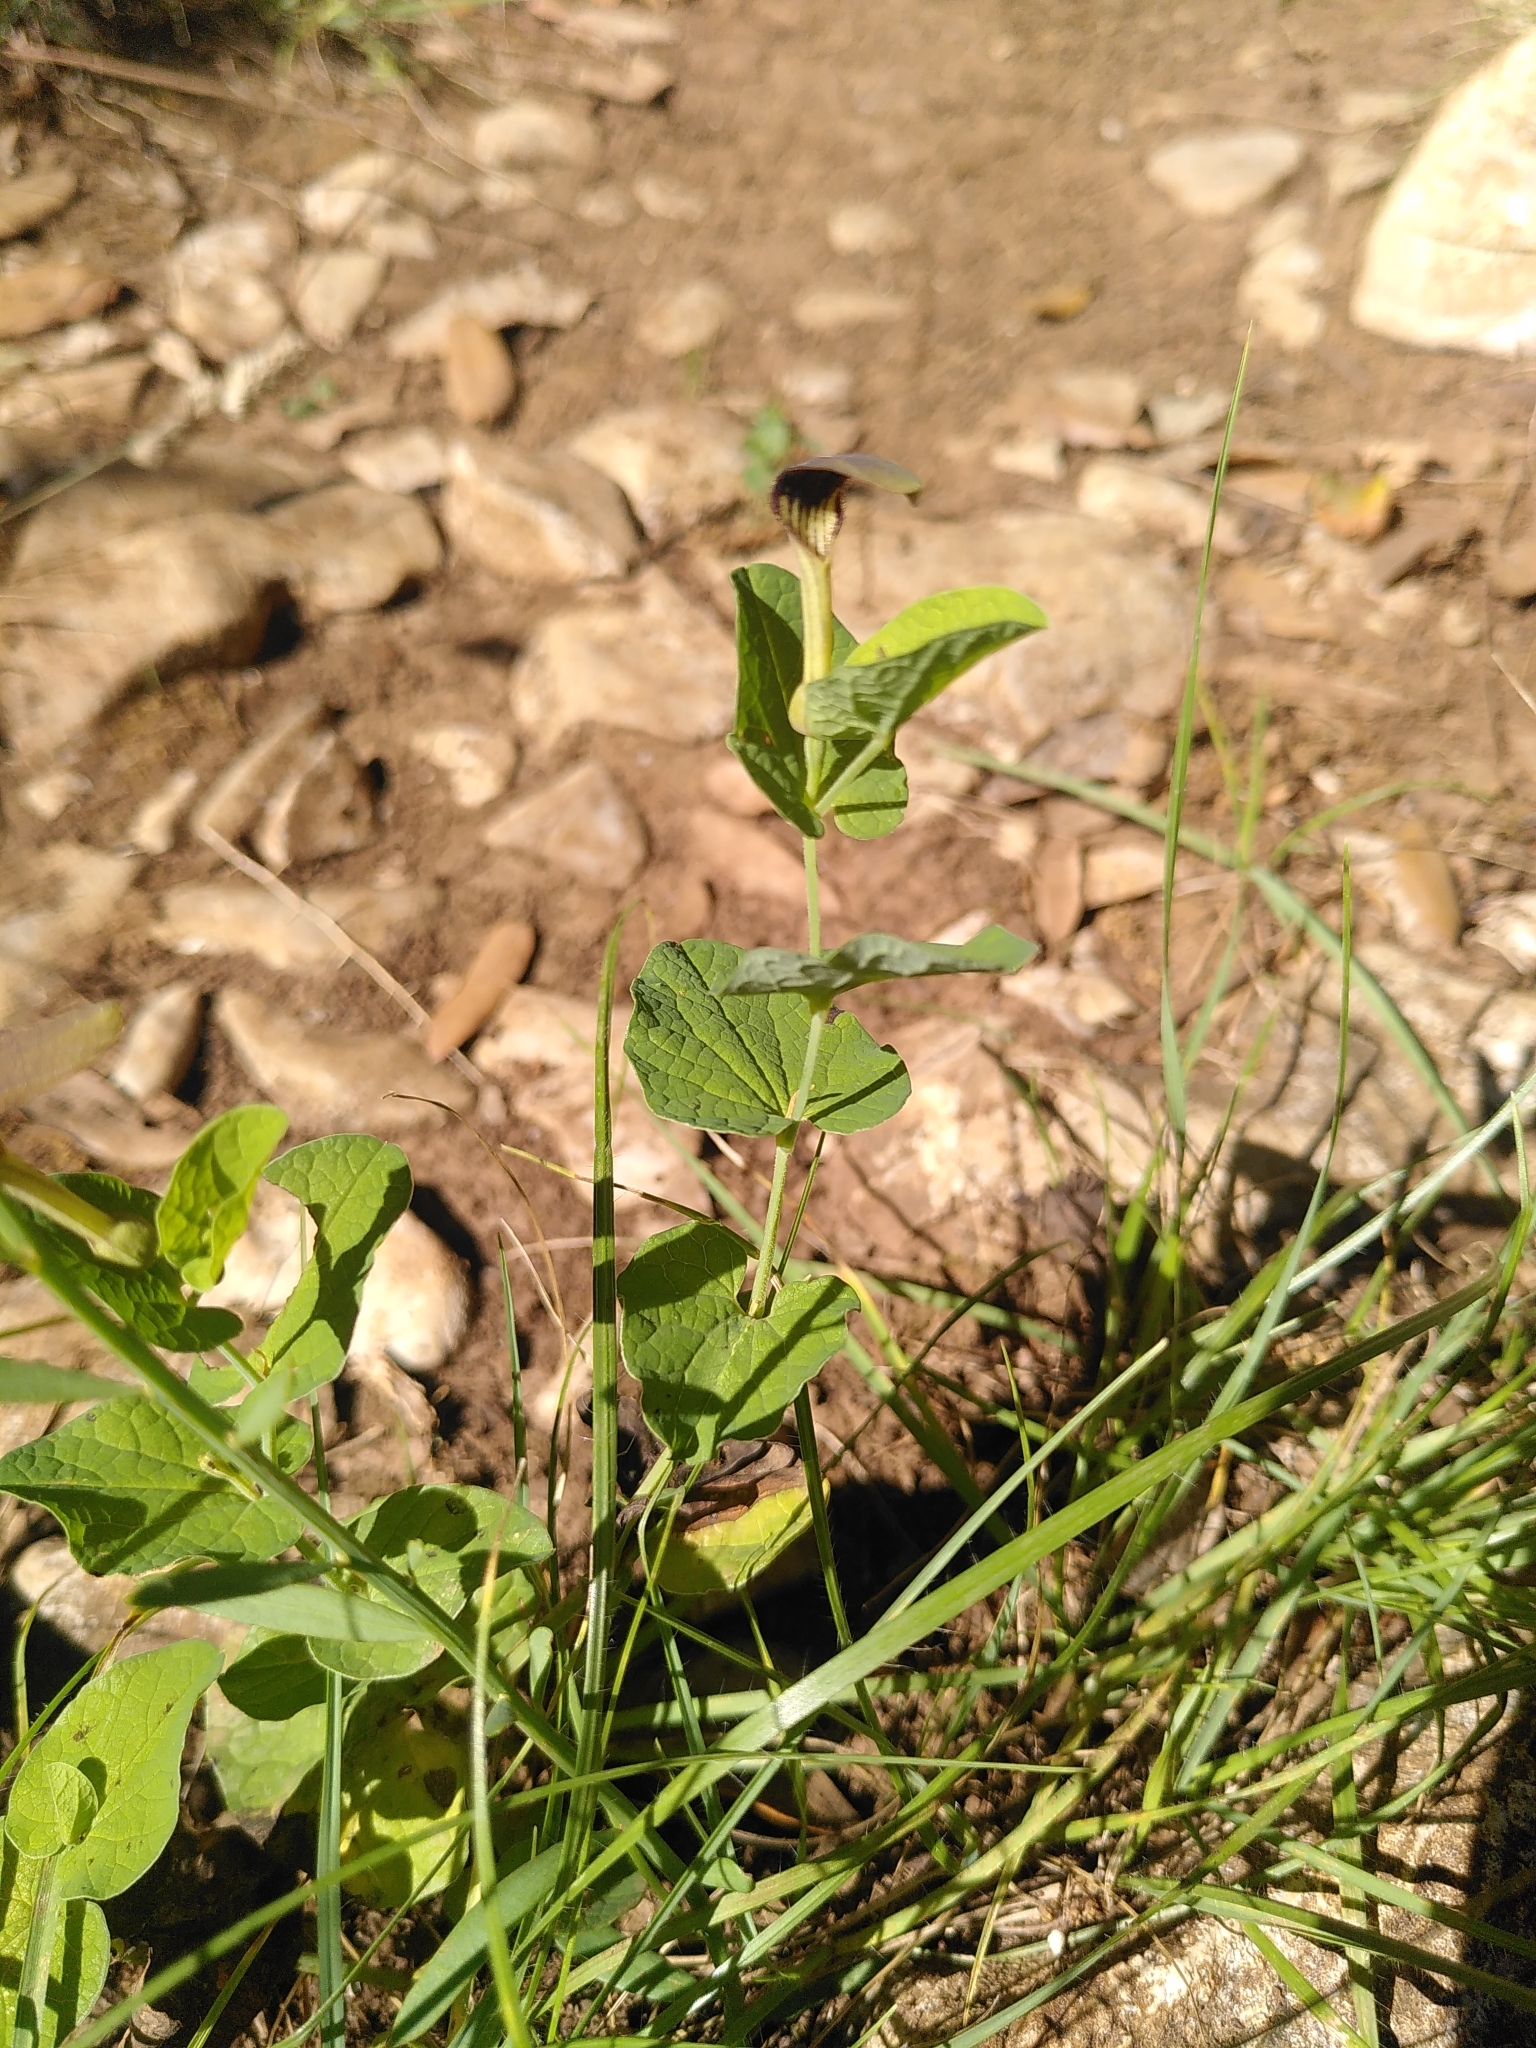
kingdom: Plantae
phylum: Tracheophyta
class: Magnoliopsida
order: Piperales
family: Aristolochiaceae
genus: Aristolochia
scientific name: Aristolochia rotunda
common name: Smearwort
